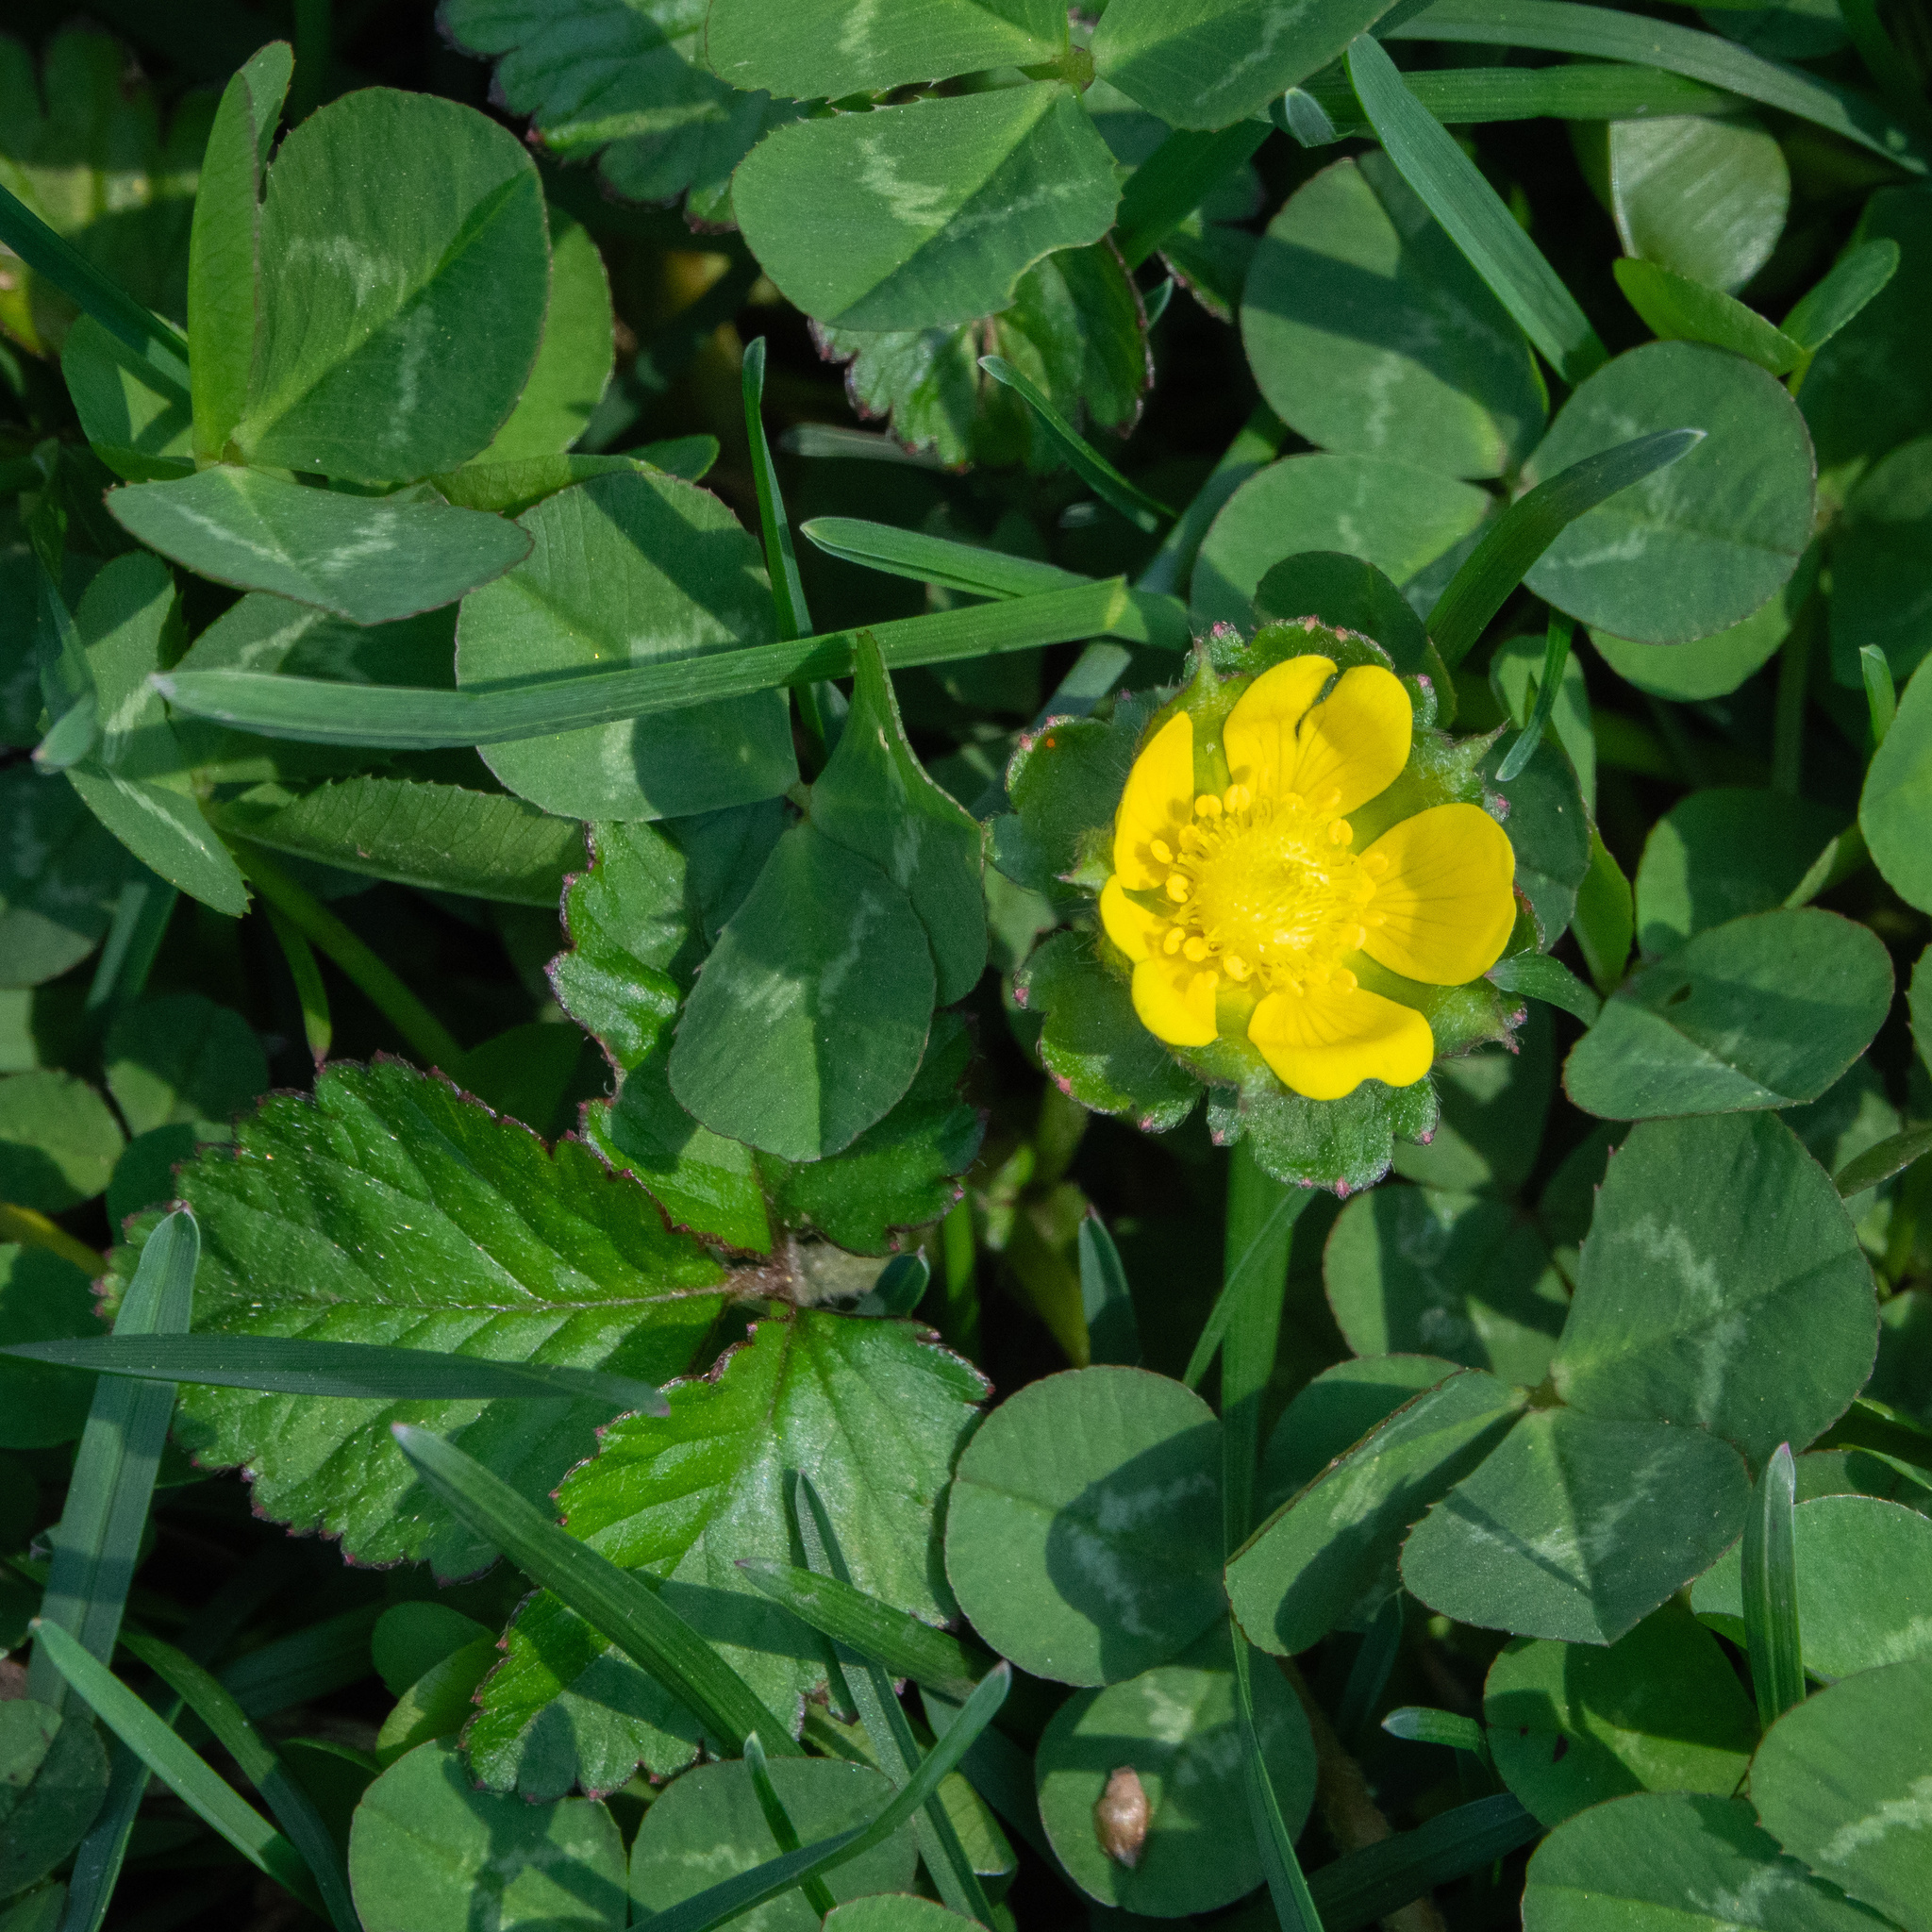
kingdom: Plantae
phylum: Tracheophyta
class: Magnoliopsida
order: Rosales
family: Rosaceae
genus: Potentilla
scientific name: Potentilla indica
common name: Yellow-flowered strawberry
